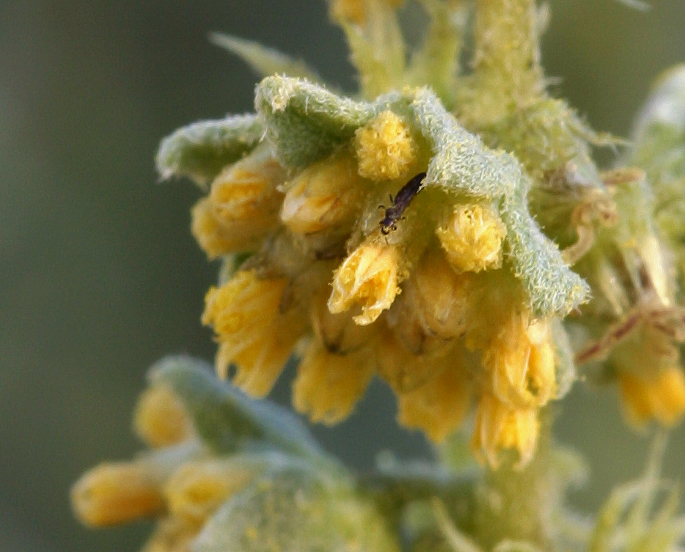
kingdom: Plantae
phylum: Tracheophyta
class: Magnoliopsida
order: Asterales
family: Asteraceae
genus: Ambrosia
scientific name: Ambrosia dumosa
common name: Bur-sage
